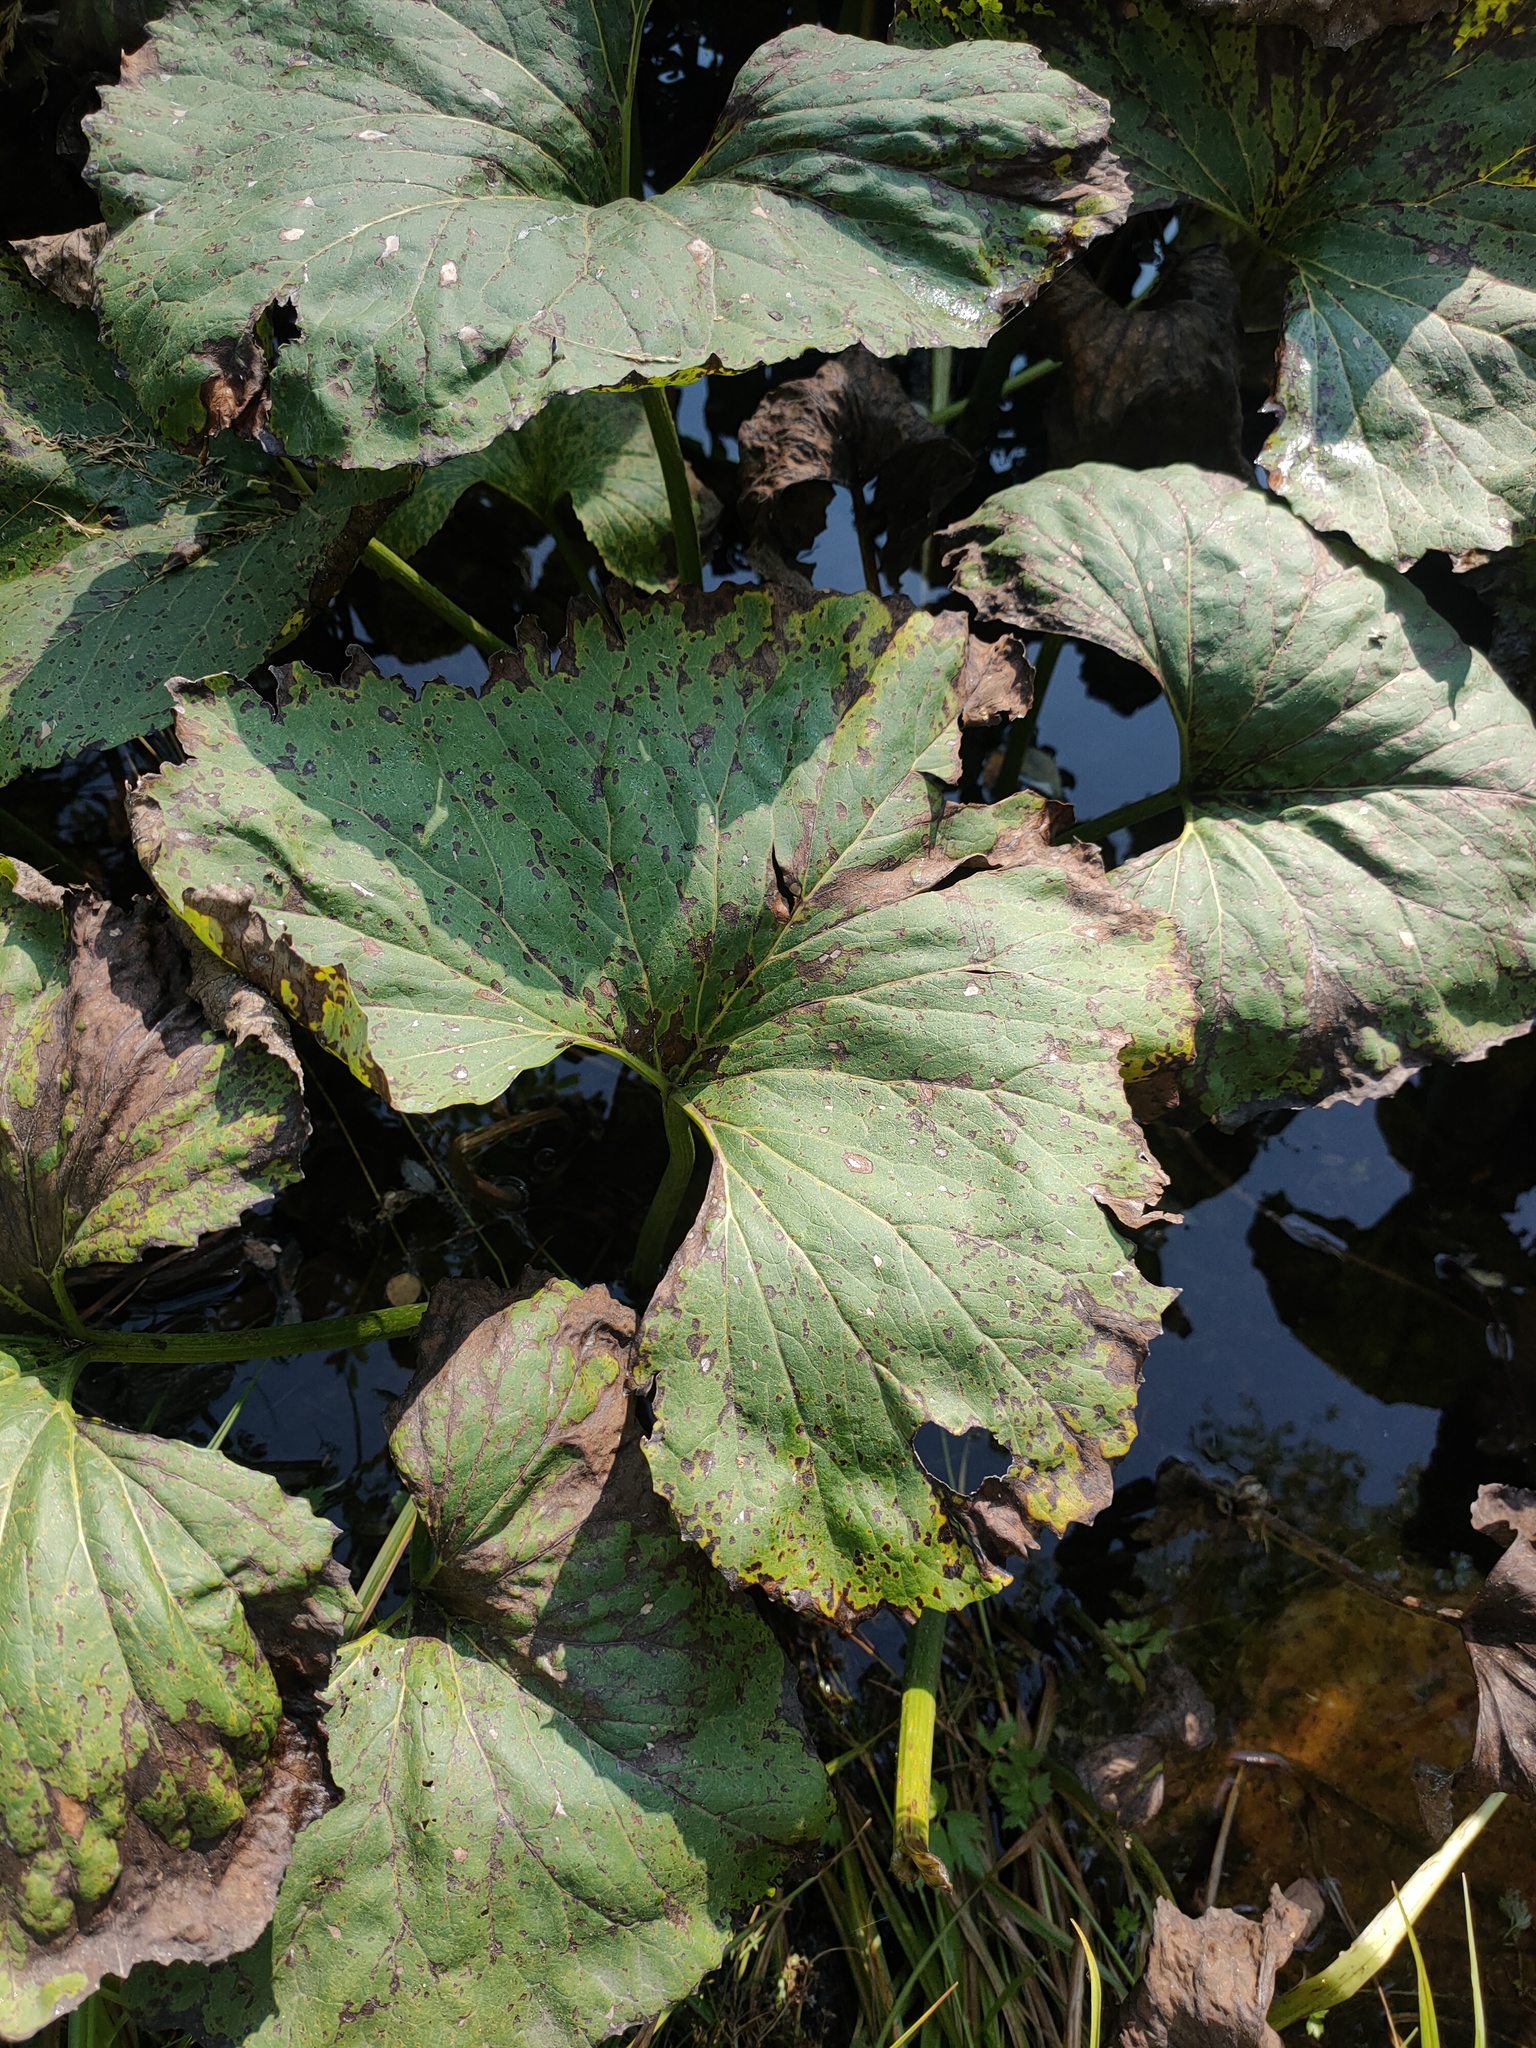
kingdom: Plantae
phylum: Tracheophyta
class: Magnoliopsida
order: Asterales
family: Asteraceae
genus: Petasites
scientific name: Petasites radiatus
